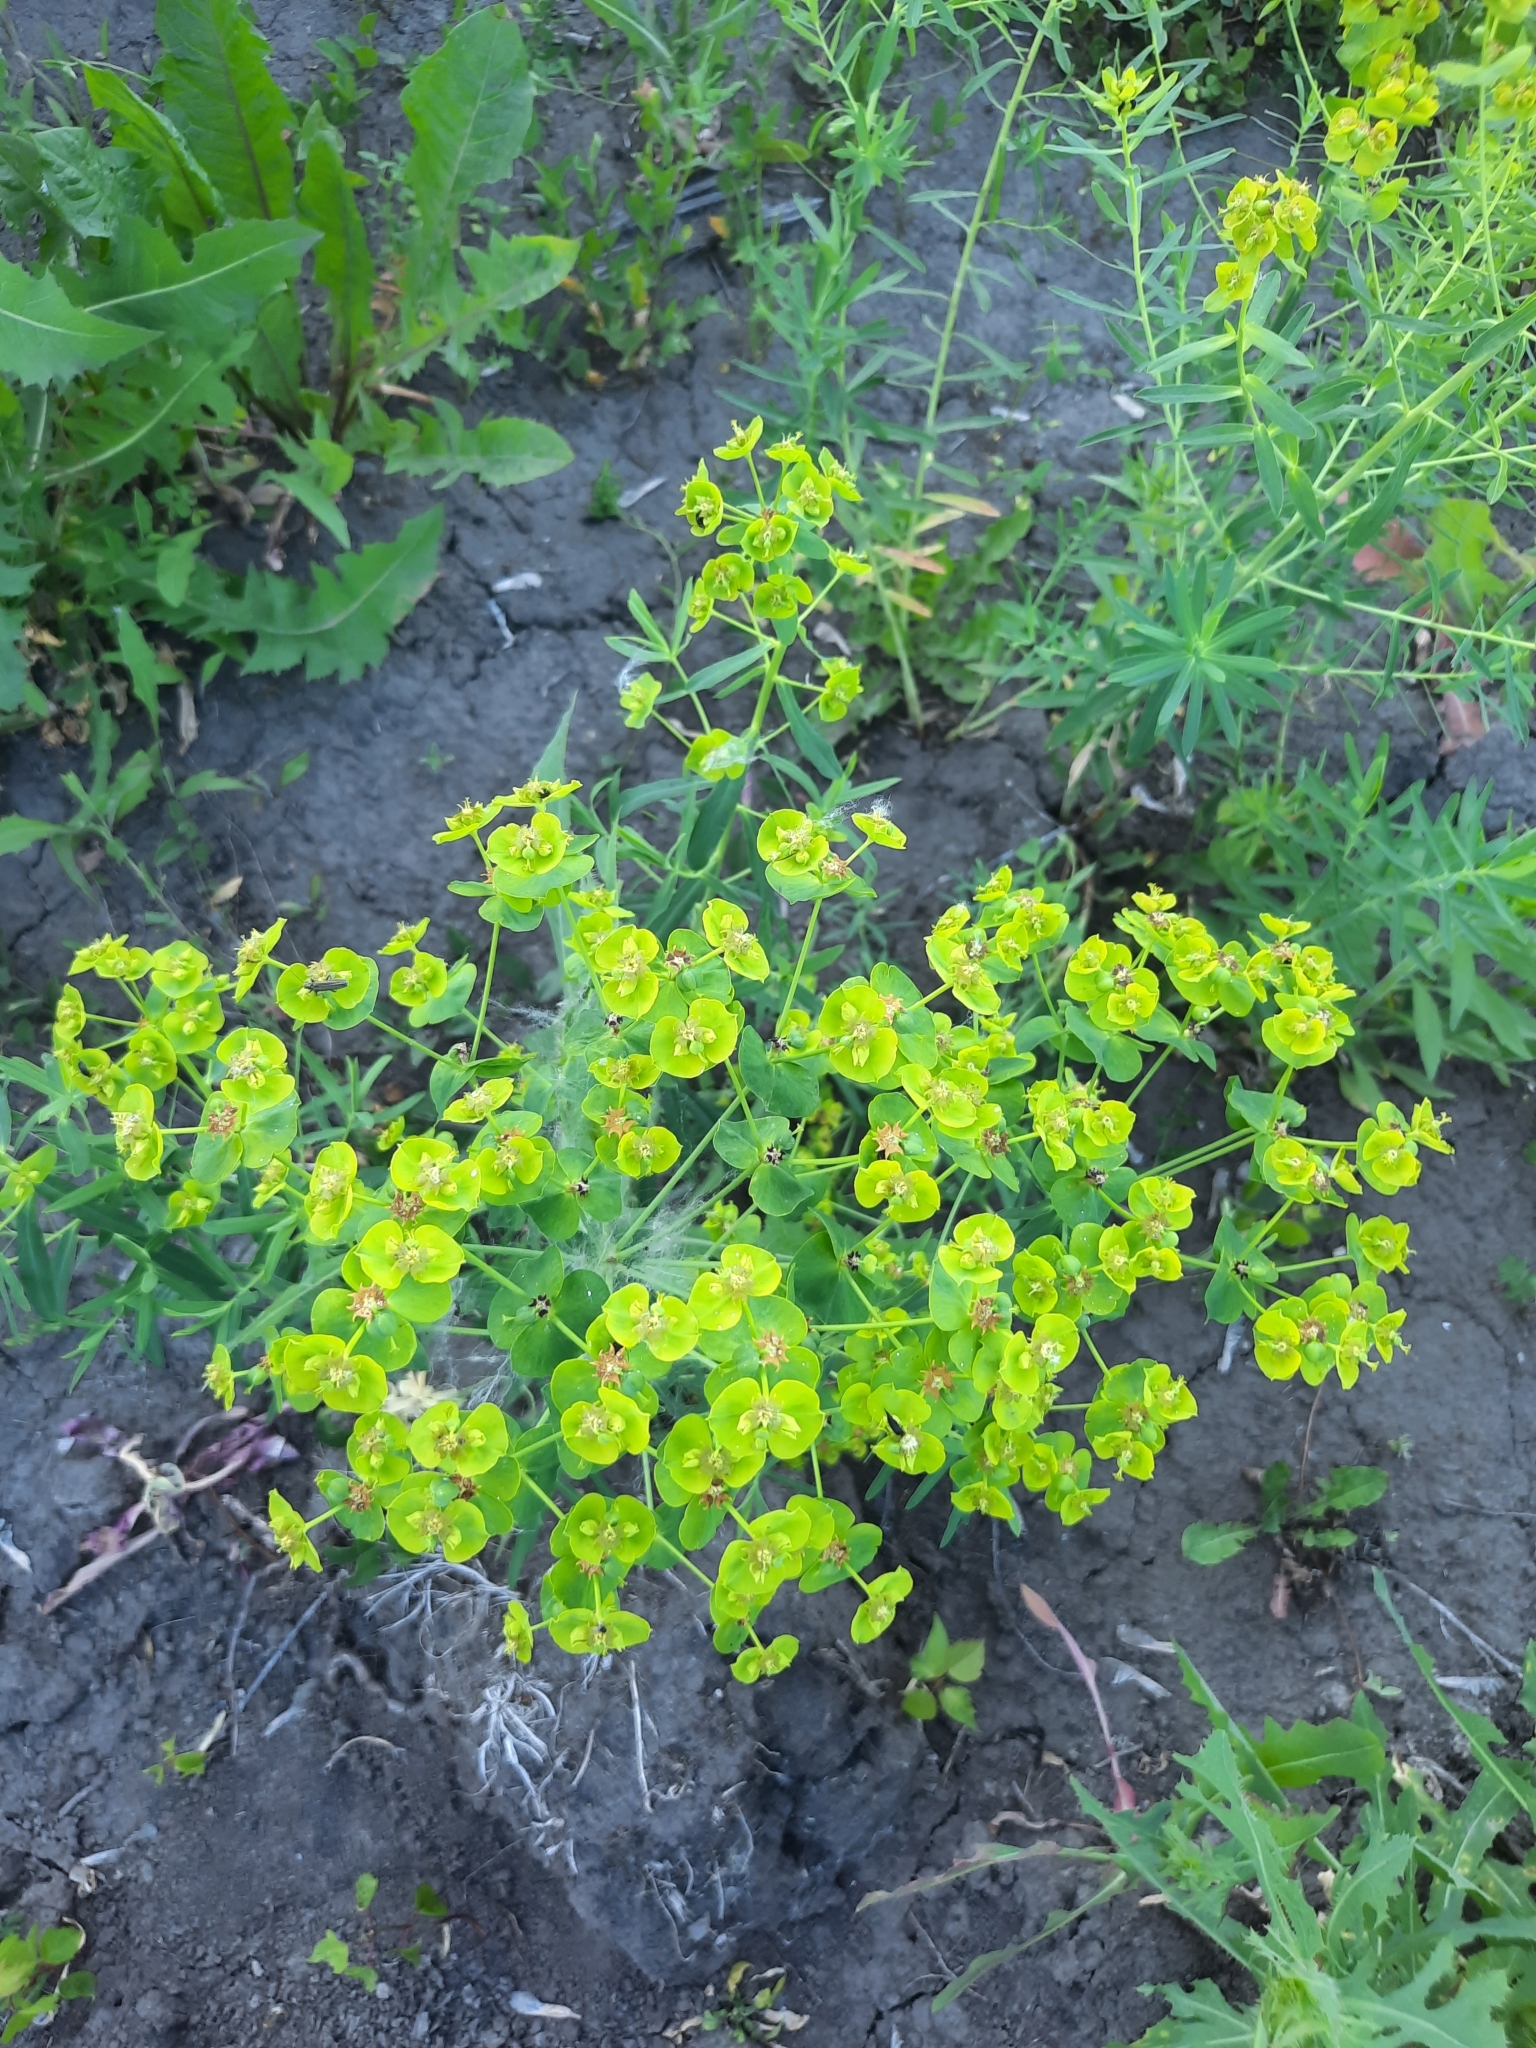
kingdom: Plantae
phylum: Tracheophyta
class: Magnoliopsida
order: Malpighiales
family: Euphorbiaceae
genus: Euphorbia
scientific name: Euphorbia virgata
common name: Leafy spurge
